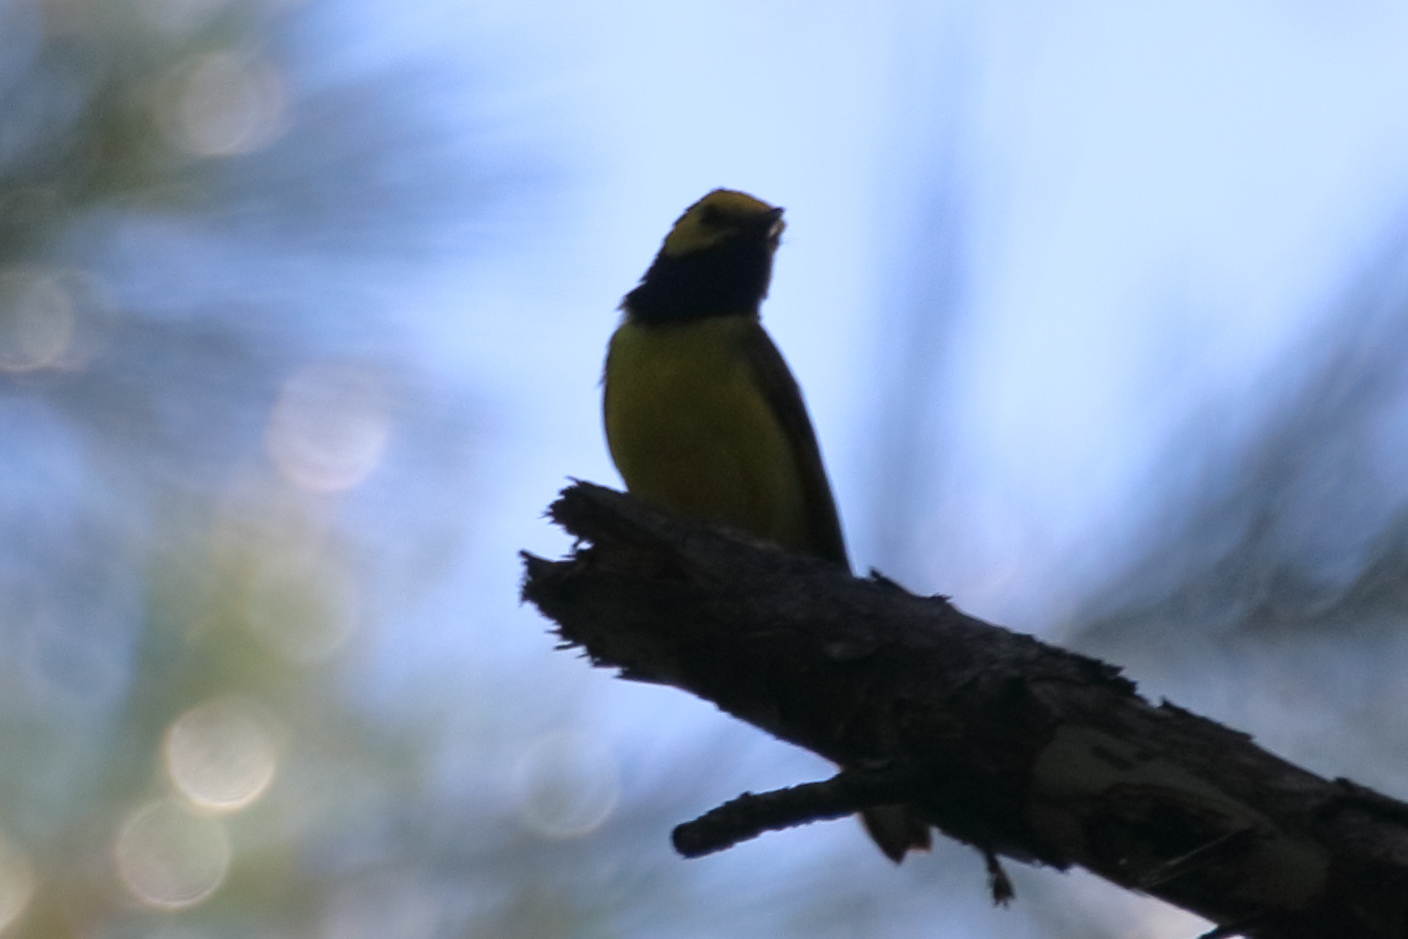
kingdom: Animalia
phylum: Chordata
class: Aves
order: Passeriformes
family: Parulidae
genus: Setophaga
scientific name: Setophaga citrina
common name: Hooded warbler
